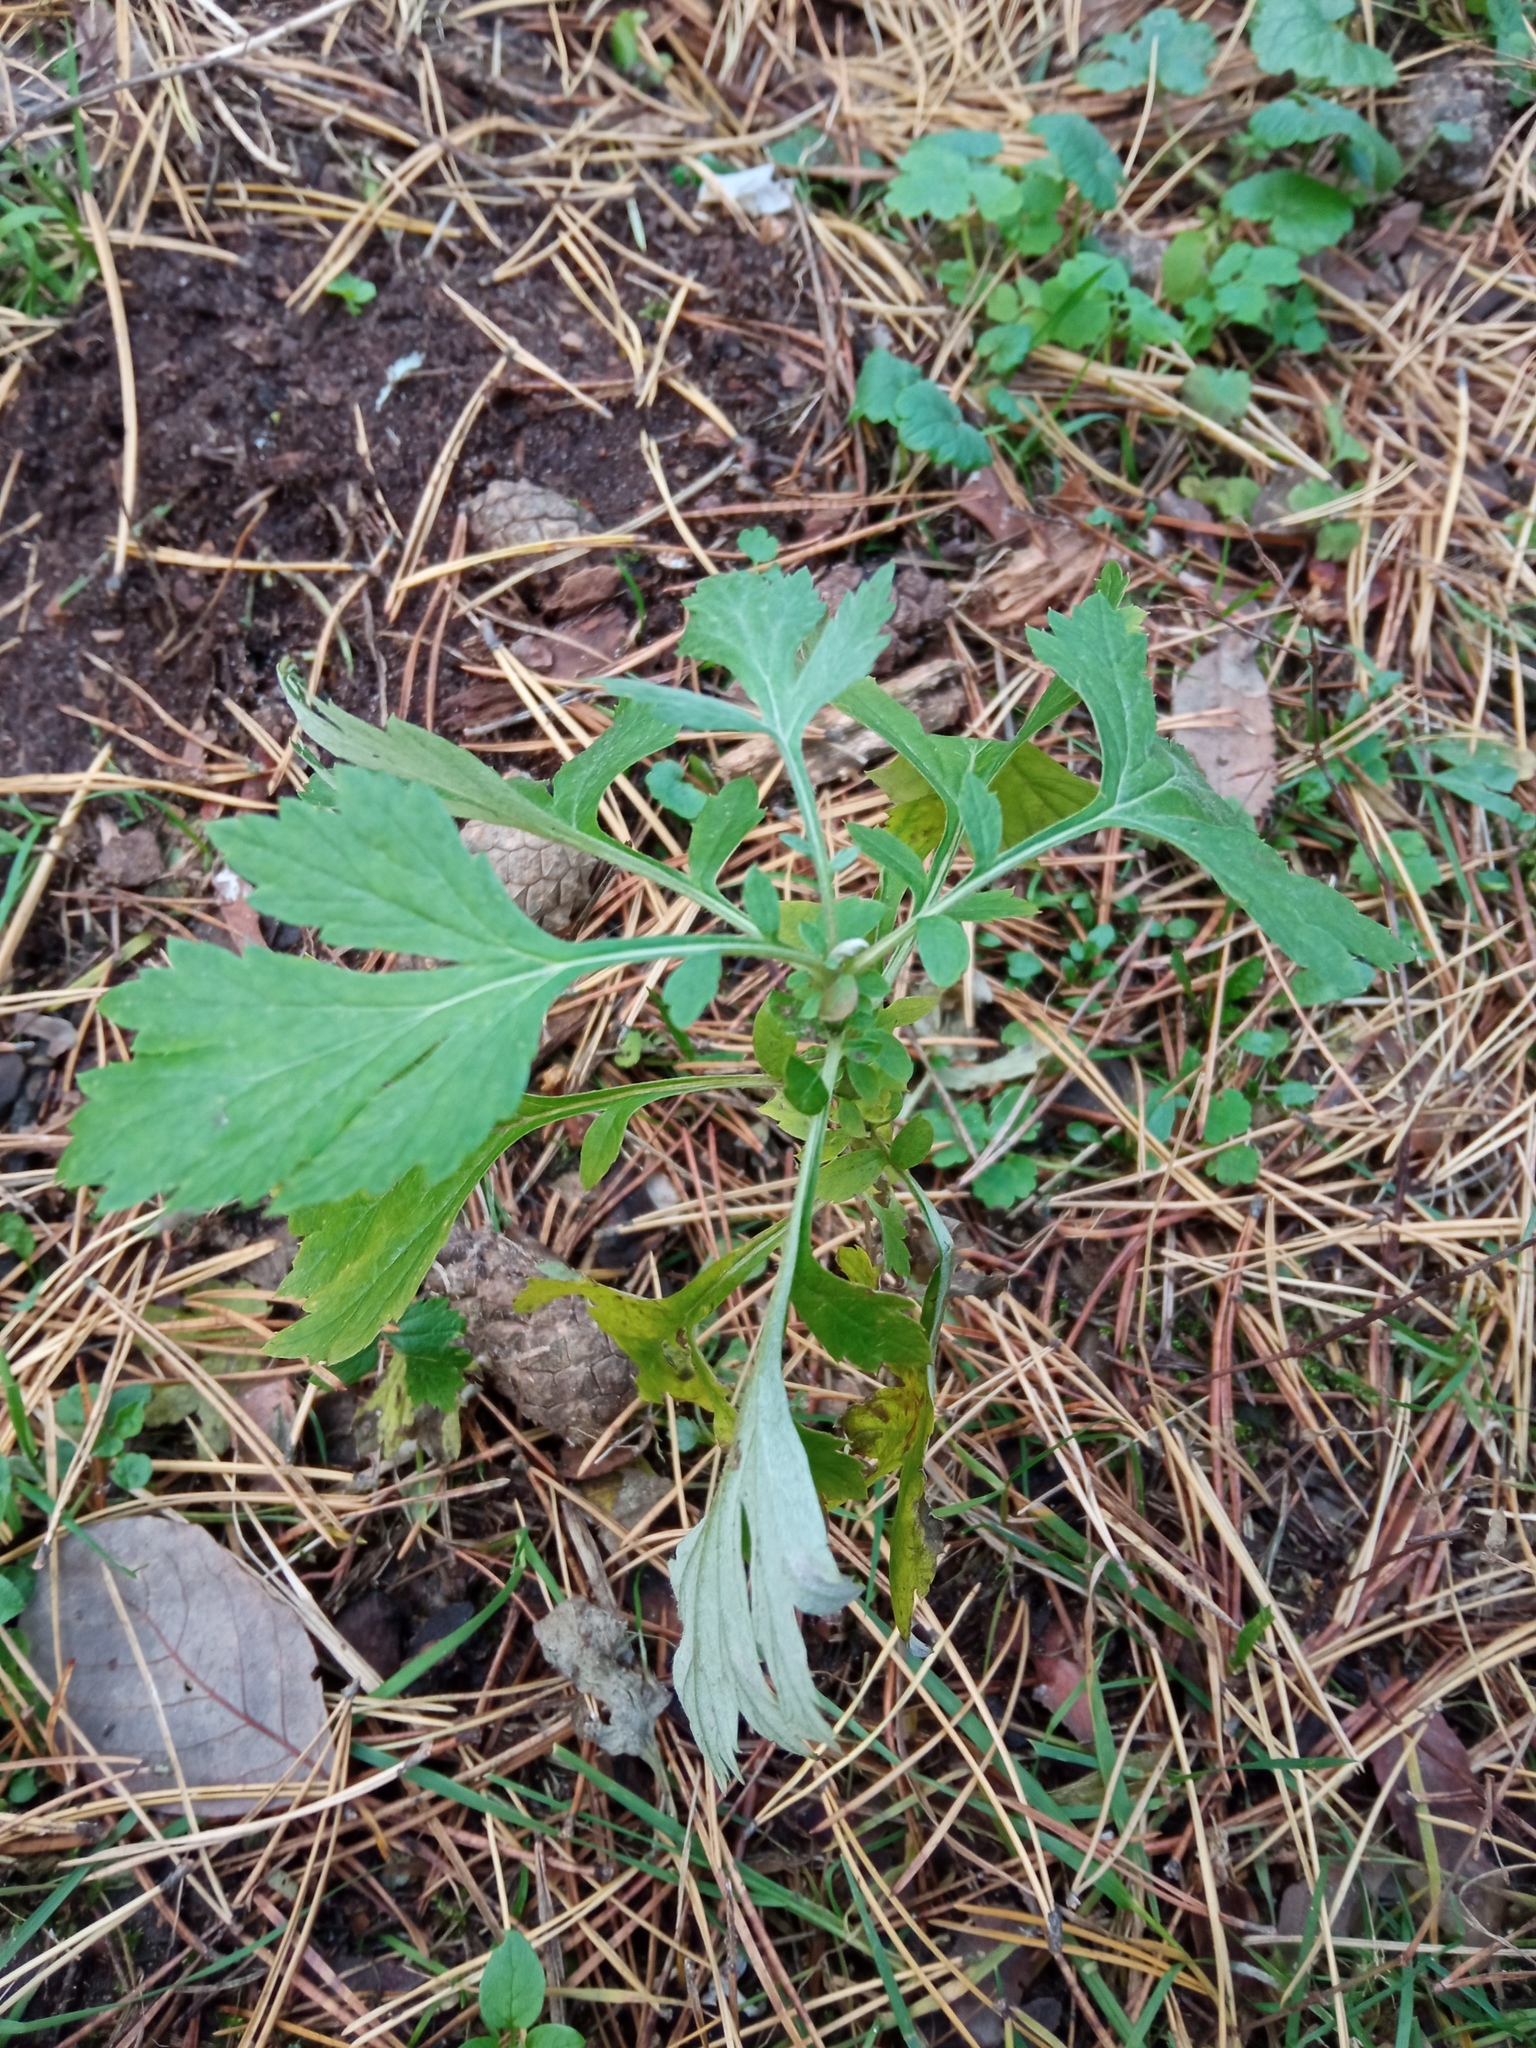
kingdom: Plantae
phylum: Tracheophyta
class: Magnoliopsida
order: Asterales
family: Asteraceae
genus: Artemisia
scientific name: Artemisia vulgaris
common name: Mugwort
